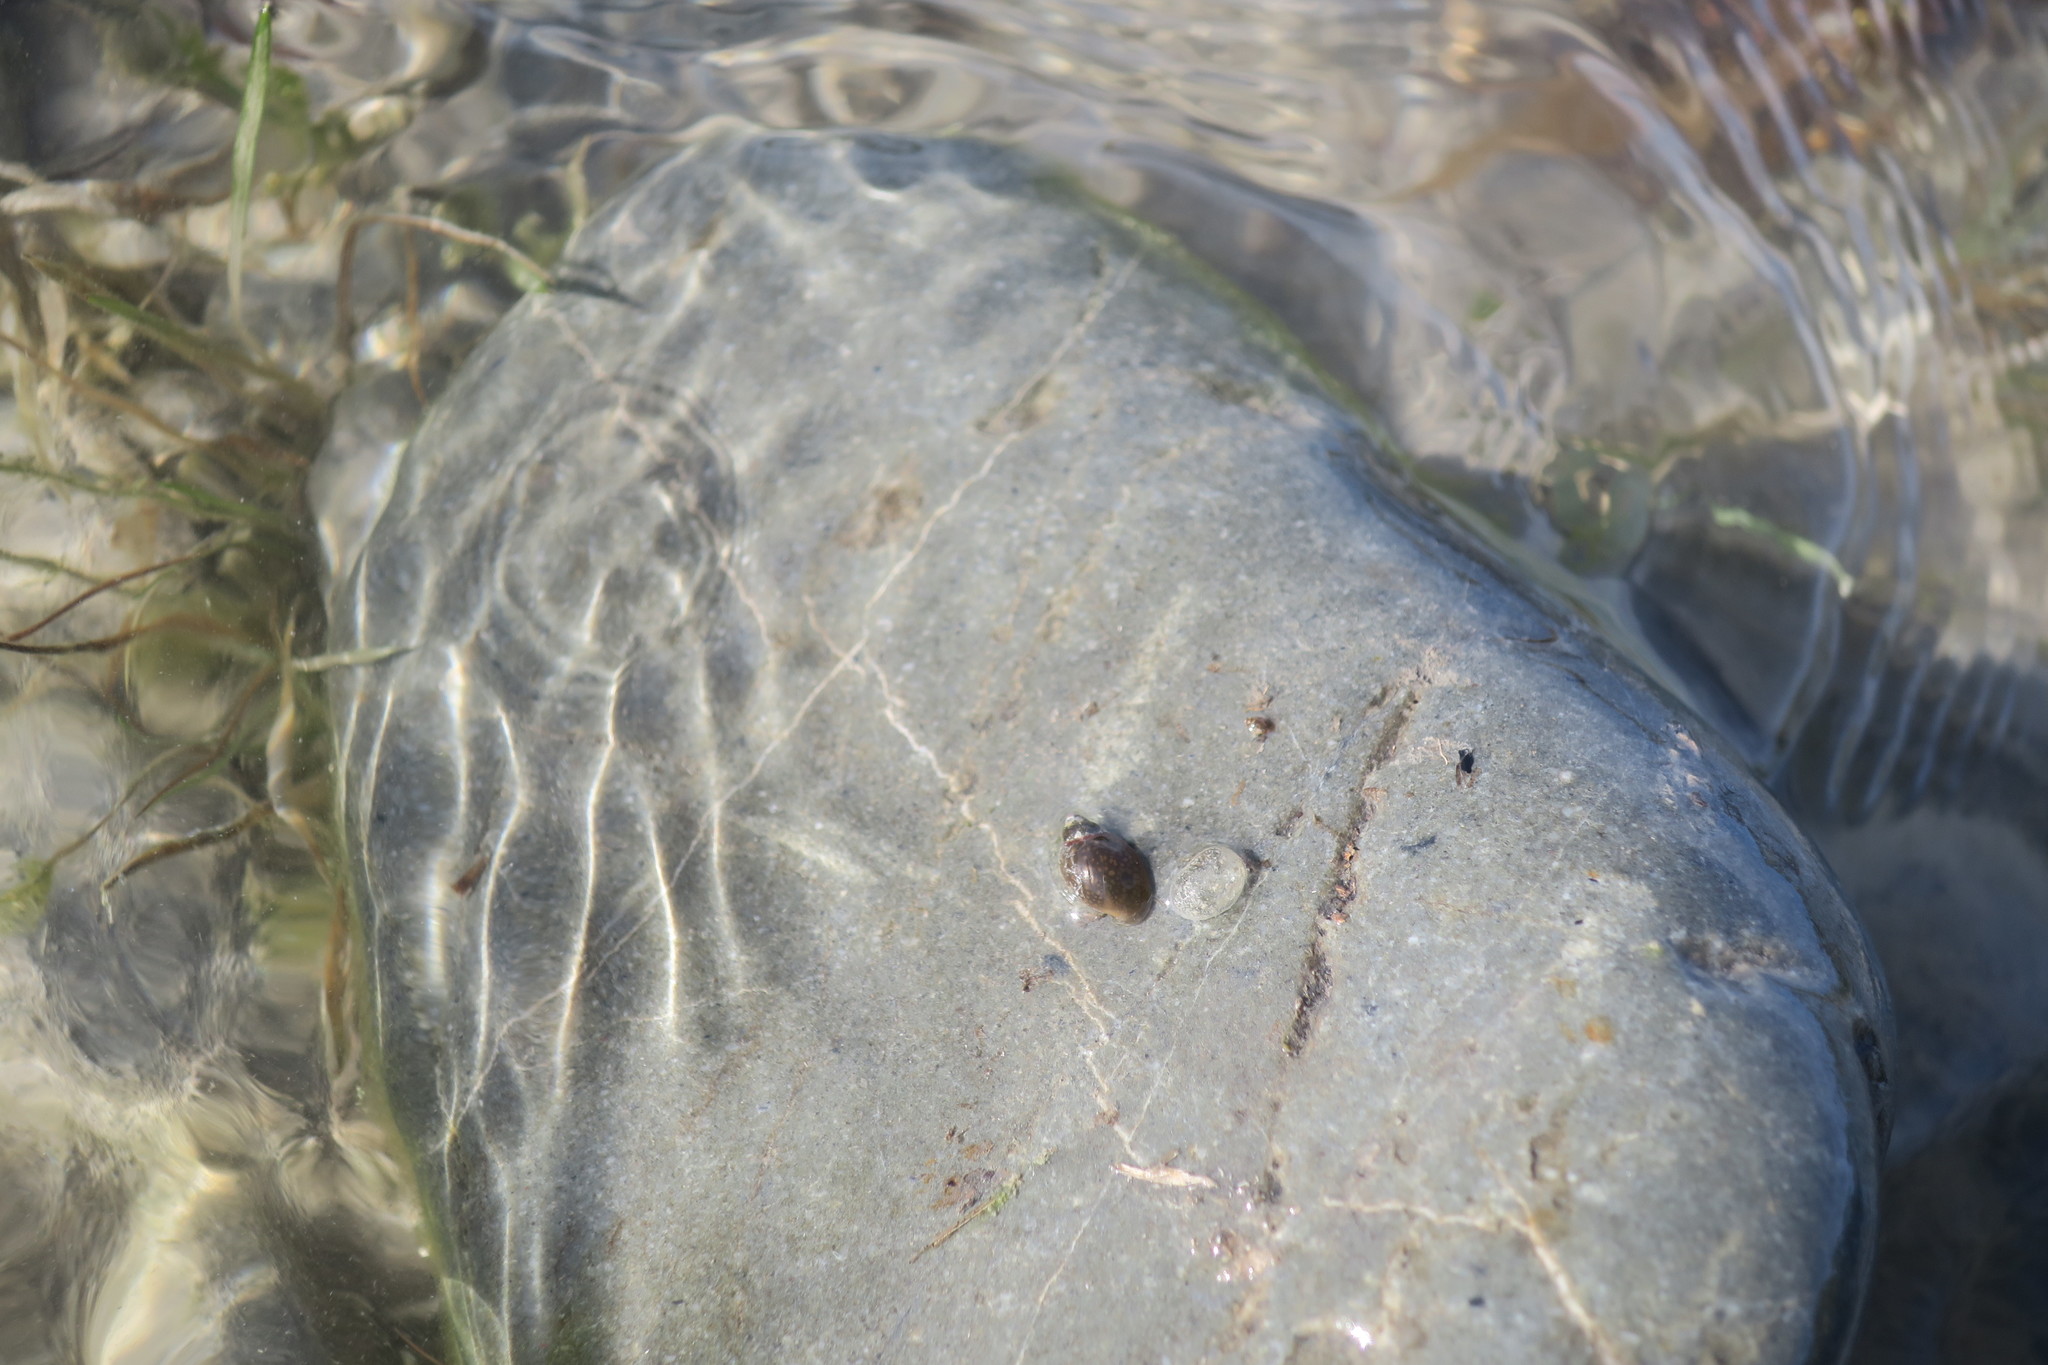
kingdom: Animalia
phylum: Mollusca
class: Gastropoda
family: Physidae
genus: Physella
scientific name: Physella acuta
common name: European physa
